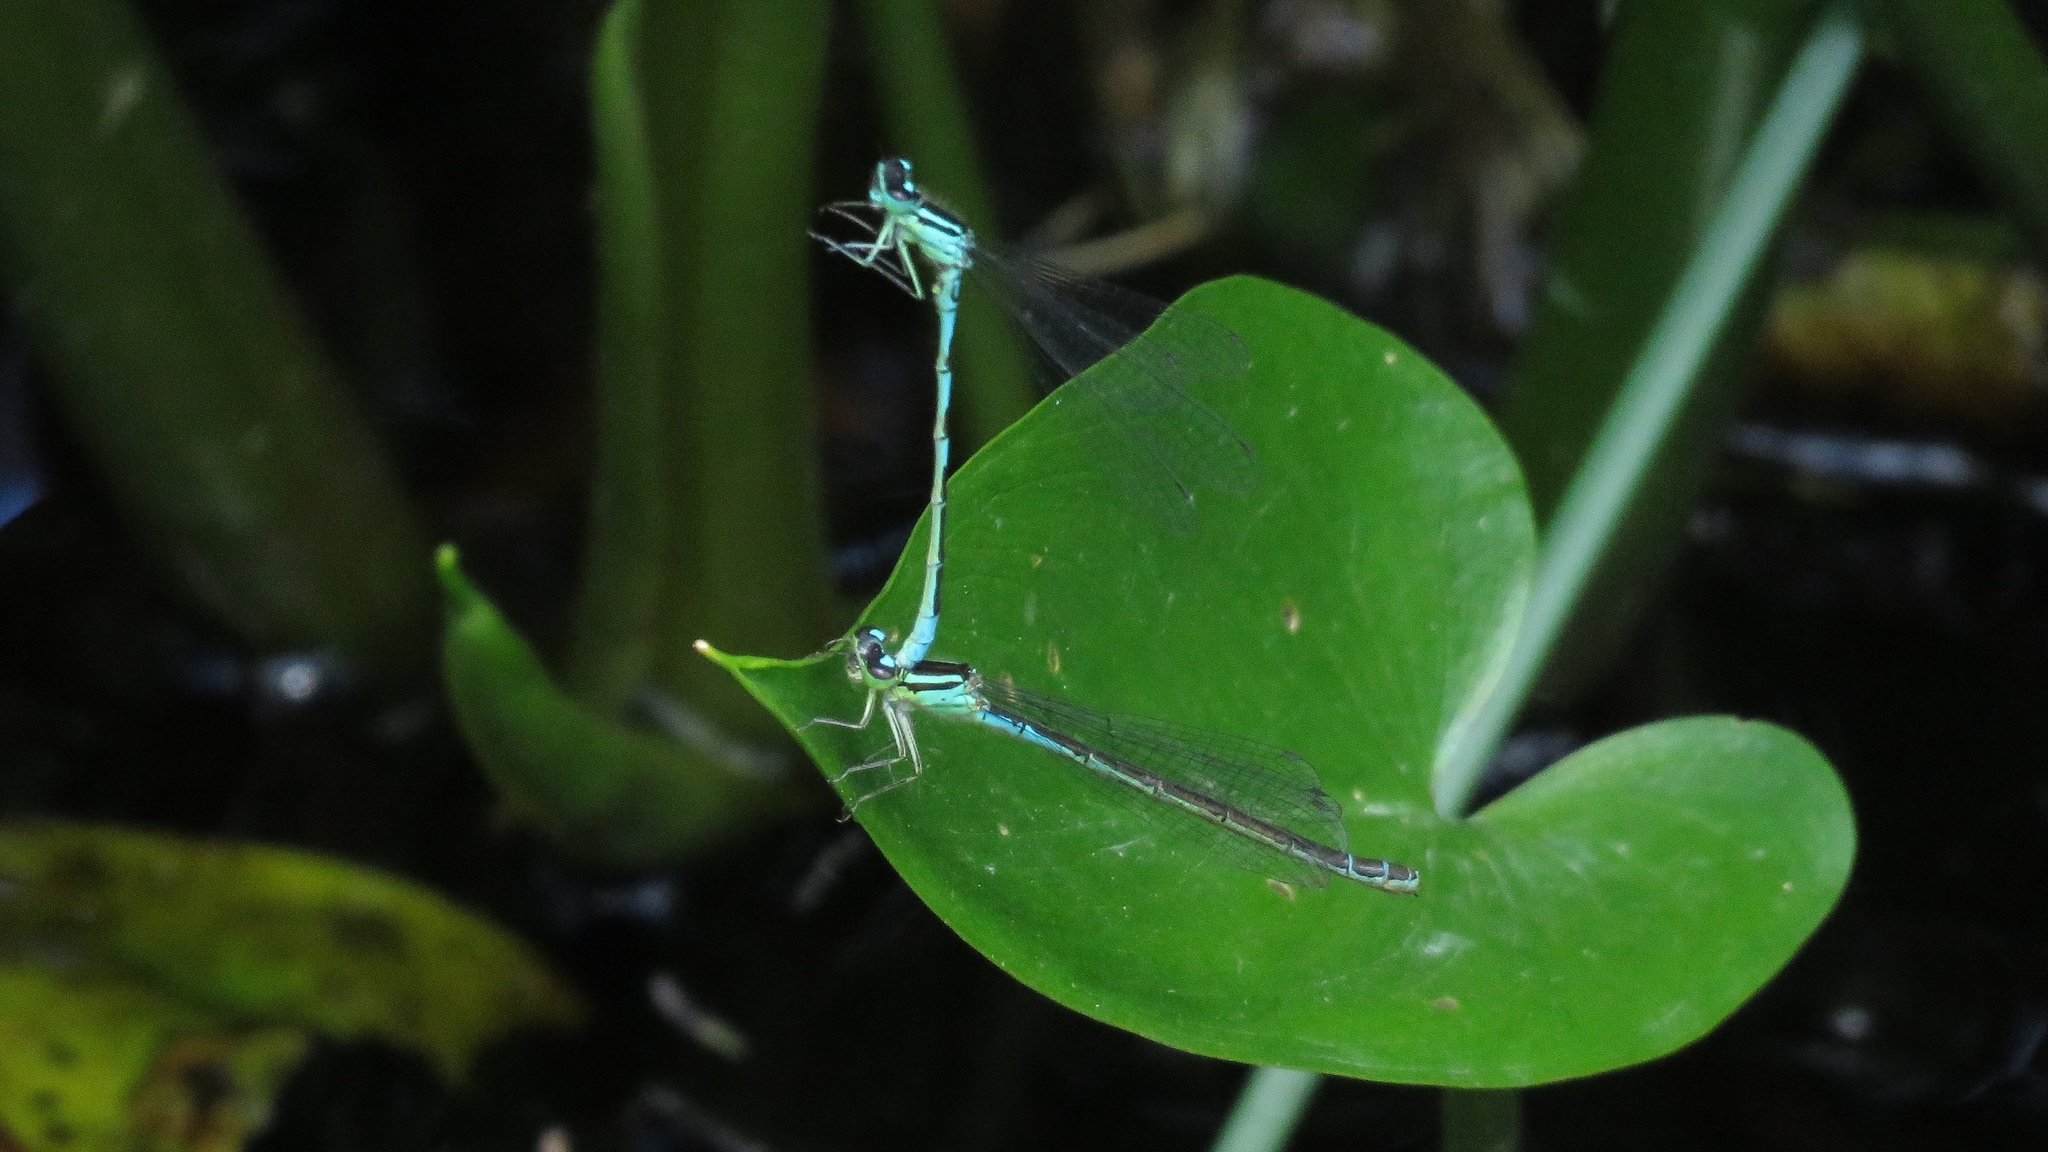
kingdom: Animalia
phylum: Arthropoda
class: Insecta
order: Odonata
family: Coenagrionidae
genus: Coenagrion
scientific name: Coenagrion resolutum
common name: Taiga bluet
